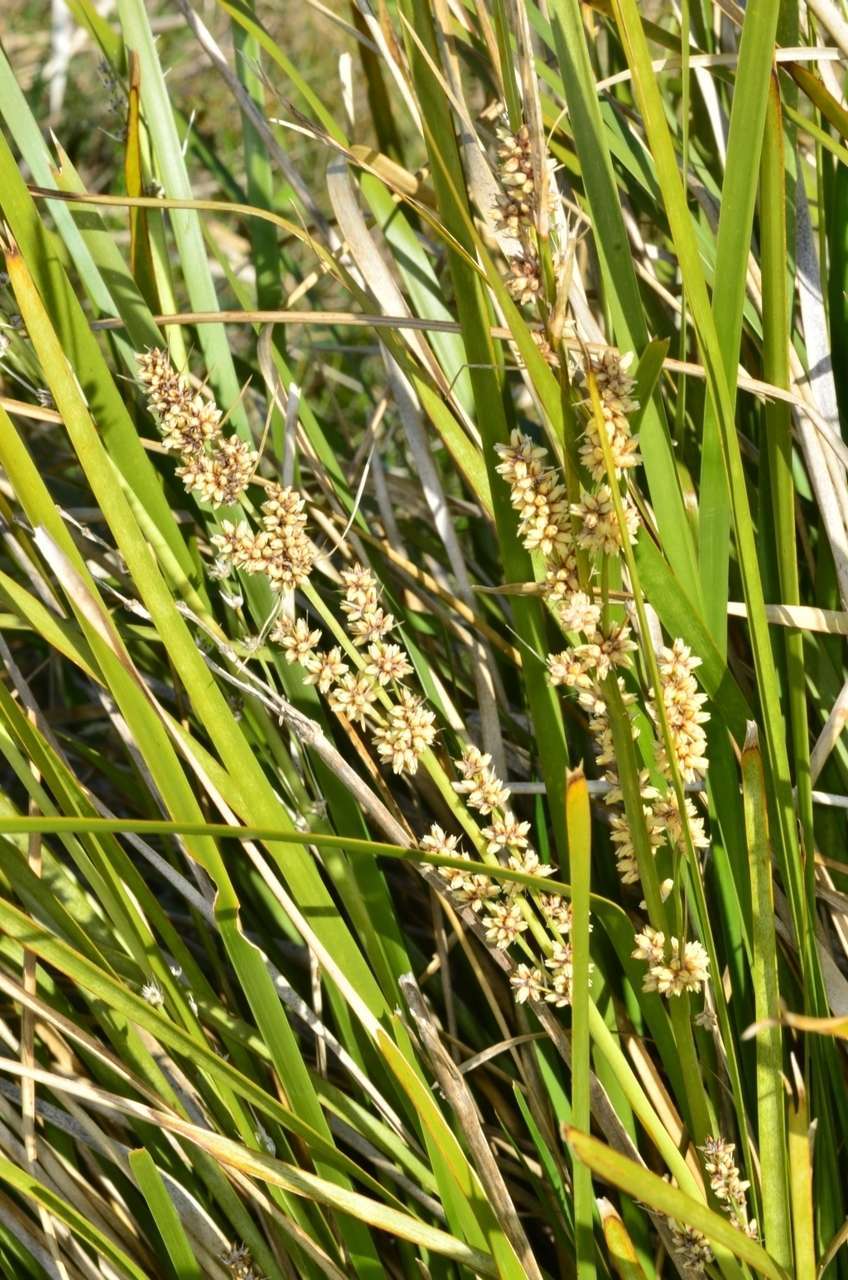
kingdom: Plantae
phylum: Tracheophyta
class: Liliopsida
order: Asparagales
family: Asparagaceae
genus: Lomandra
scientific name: Lomandra longifolia
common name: Longleaf mat-rush
